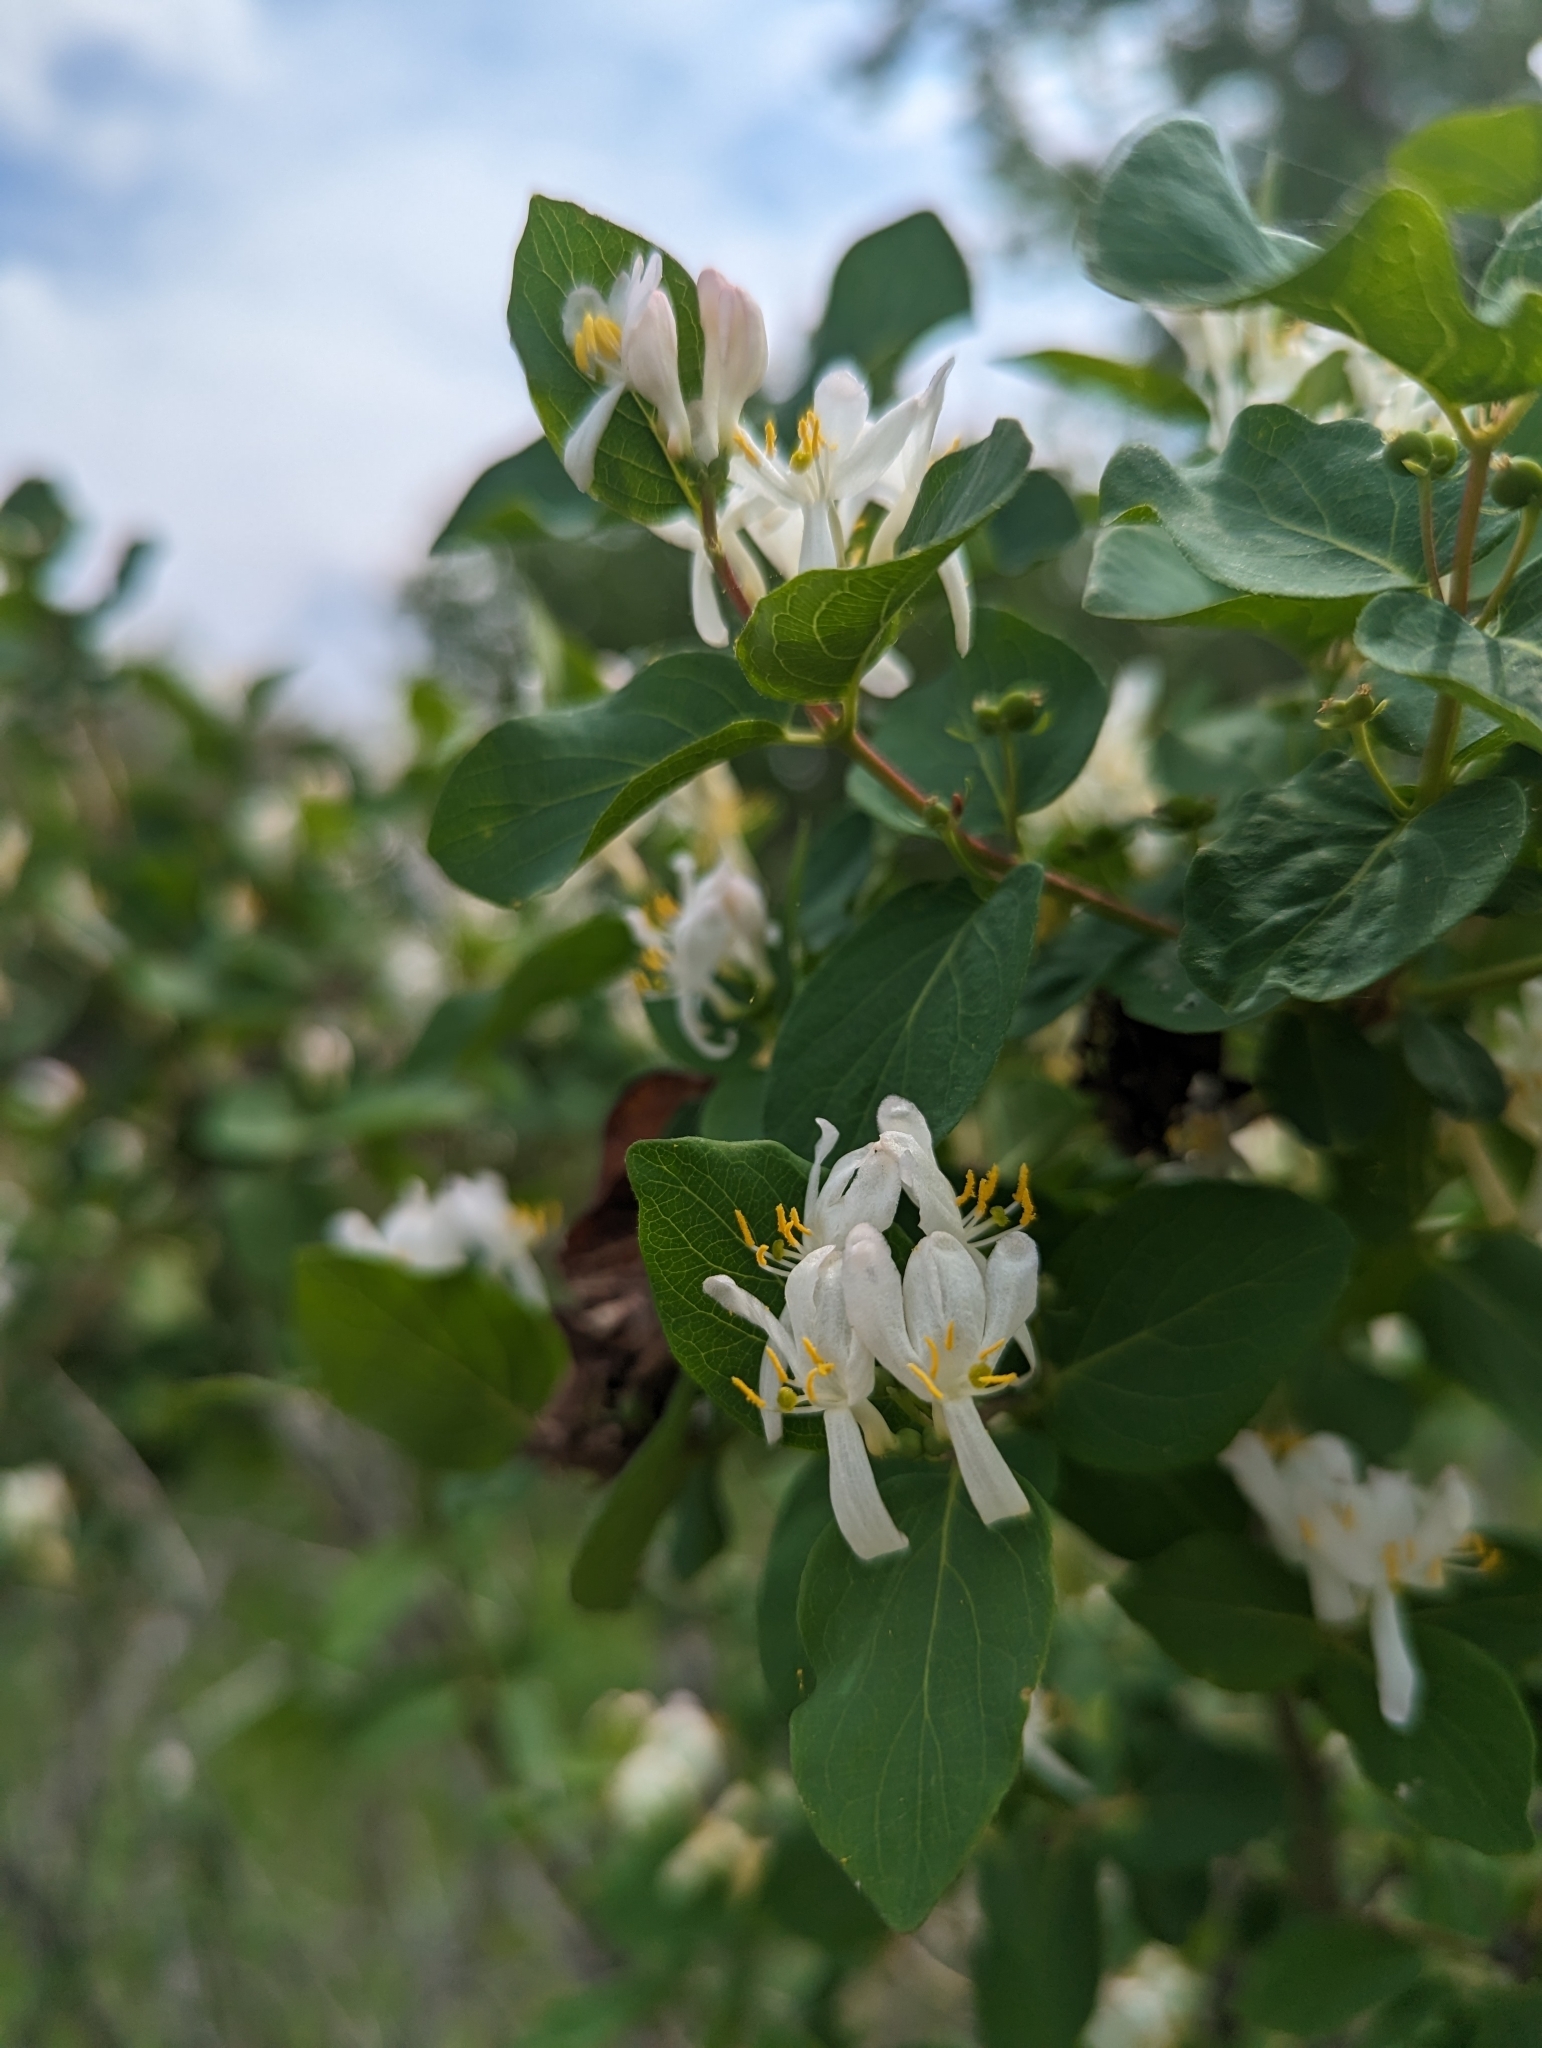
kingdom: Plantae
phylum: Tracheophyta
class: Magnoliopsida
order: Dipsacales
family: Caprifoliaceae
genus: Lonicera
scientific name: Lonicera tatarica
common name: Tatarian honeysuckle
